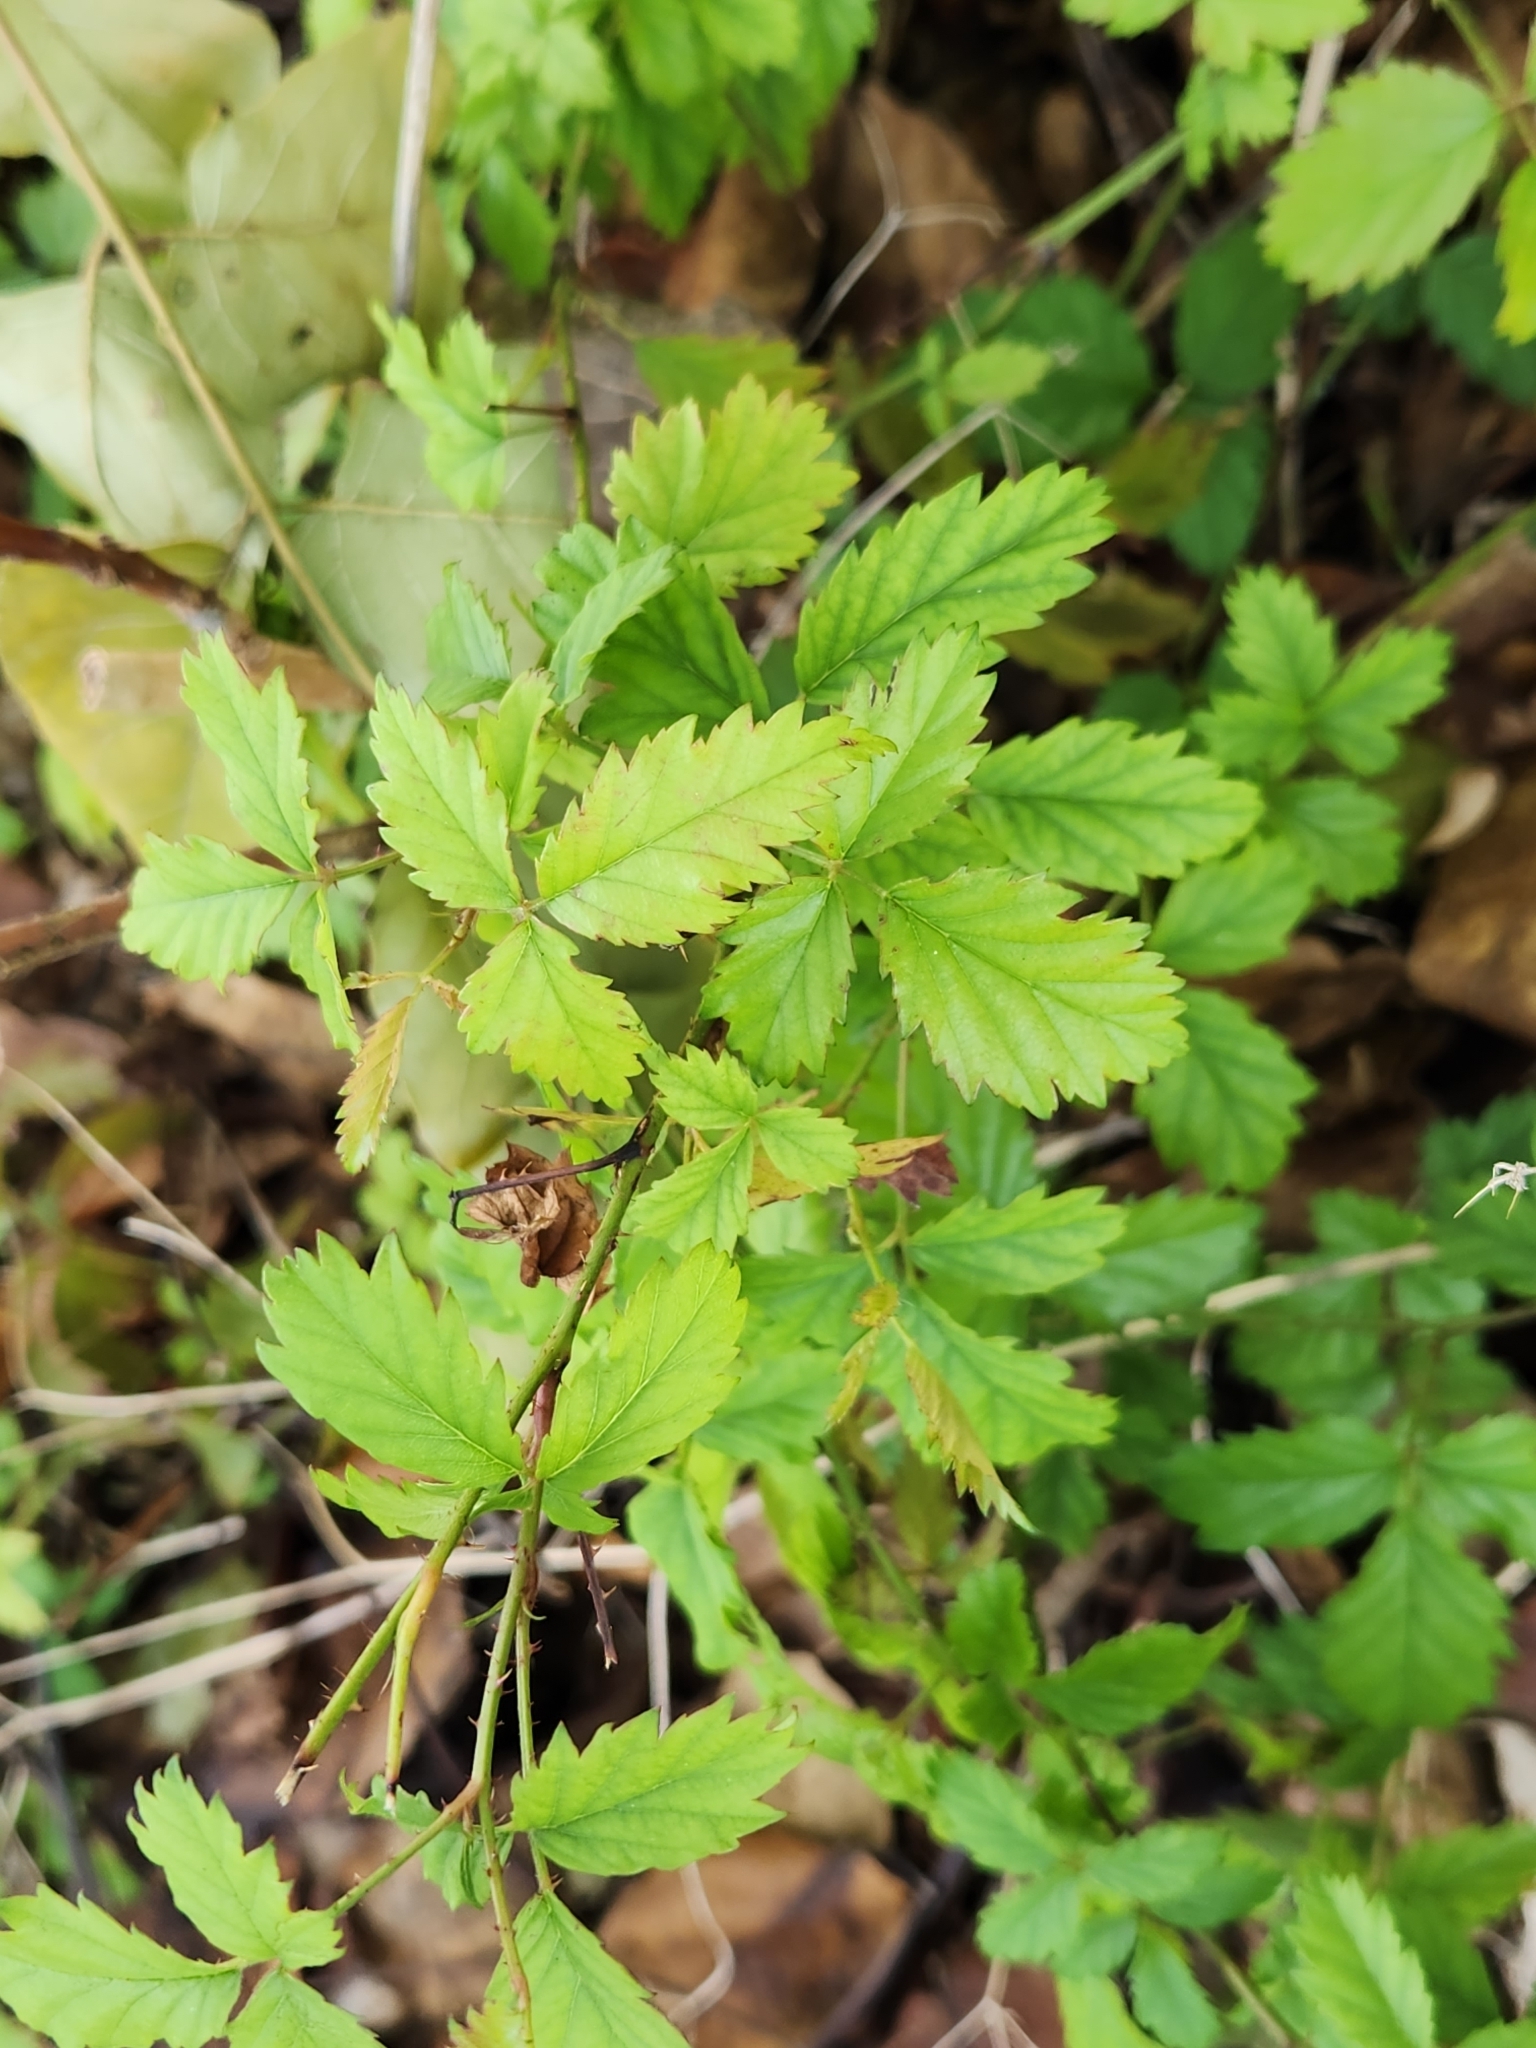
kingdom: Plantae
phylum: Tracheophyta
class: Magnoliopsida
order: Rosales
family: Rosaceae
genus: Rubus
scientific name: Rubus trivialis
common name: Southern dewberry
